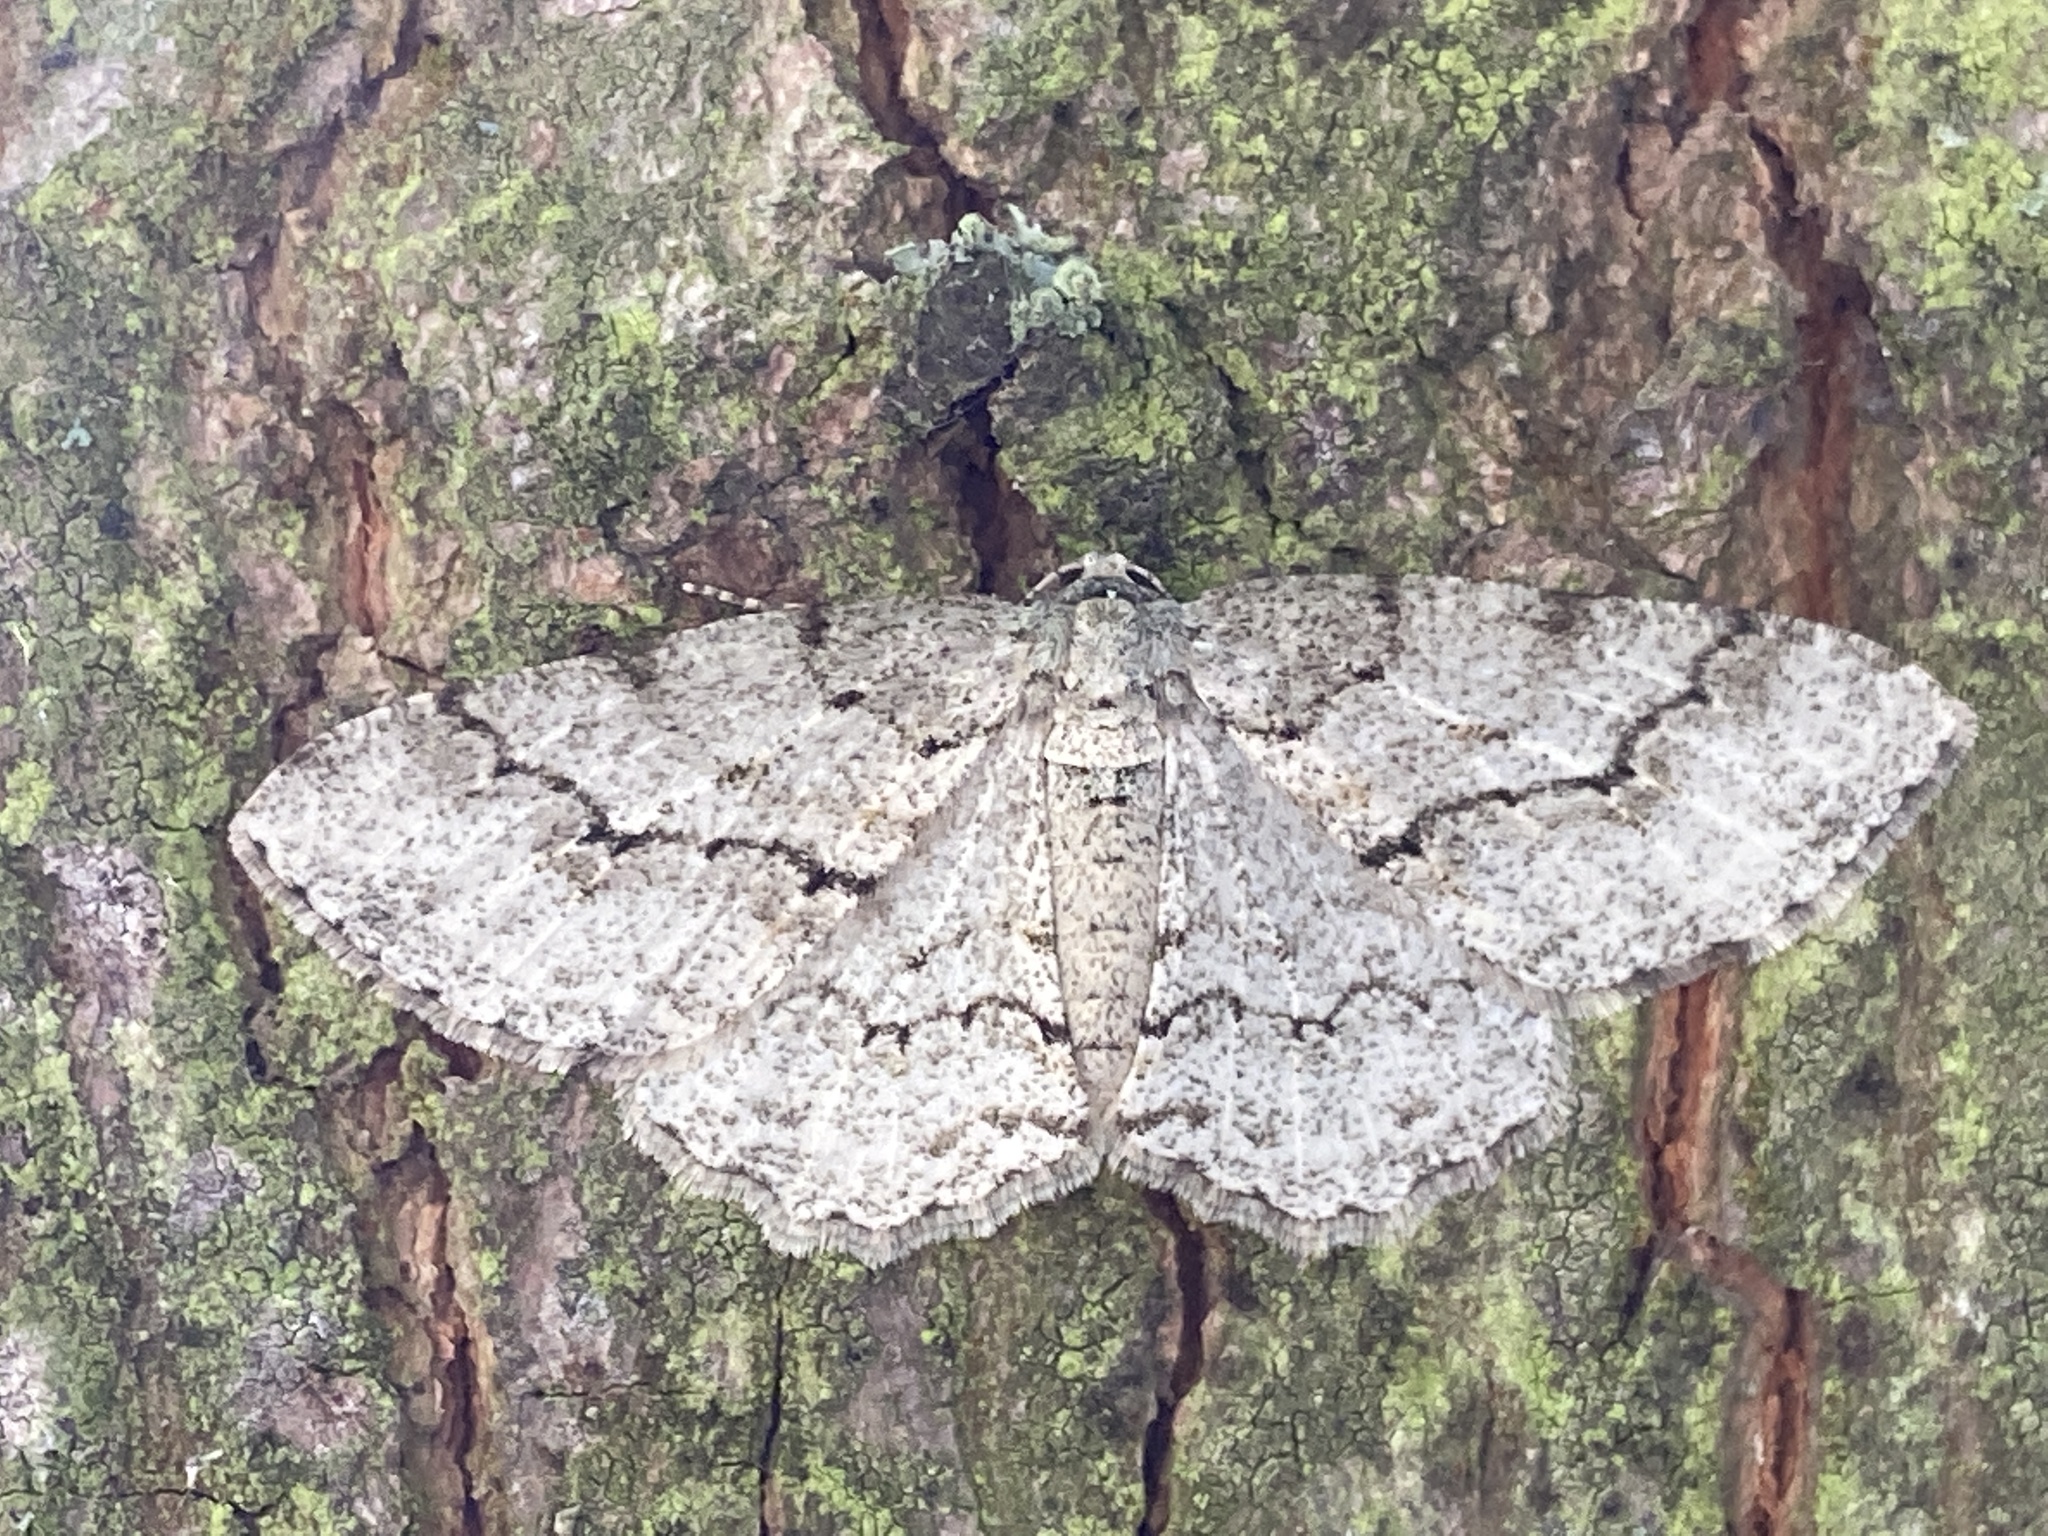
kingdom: Animalia
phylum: Arthropoda
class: Insecta
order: Lepidoptera
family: Geometridae
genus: Ectropis
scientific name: Ectropis crepuscularia
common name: Engrailed
